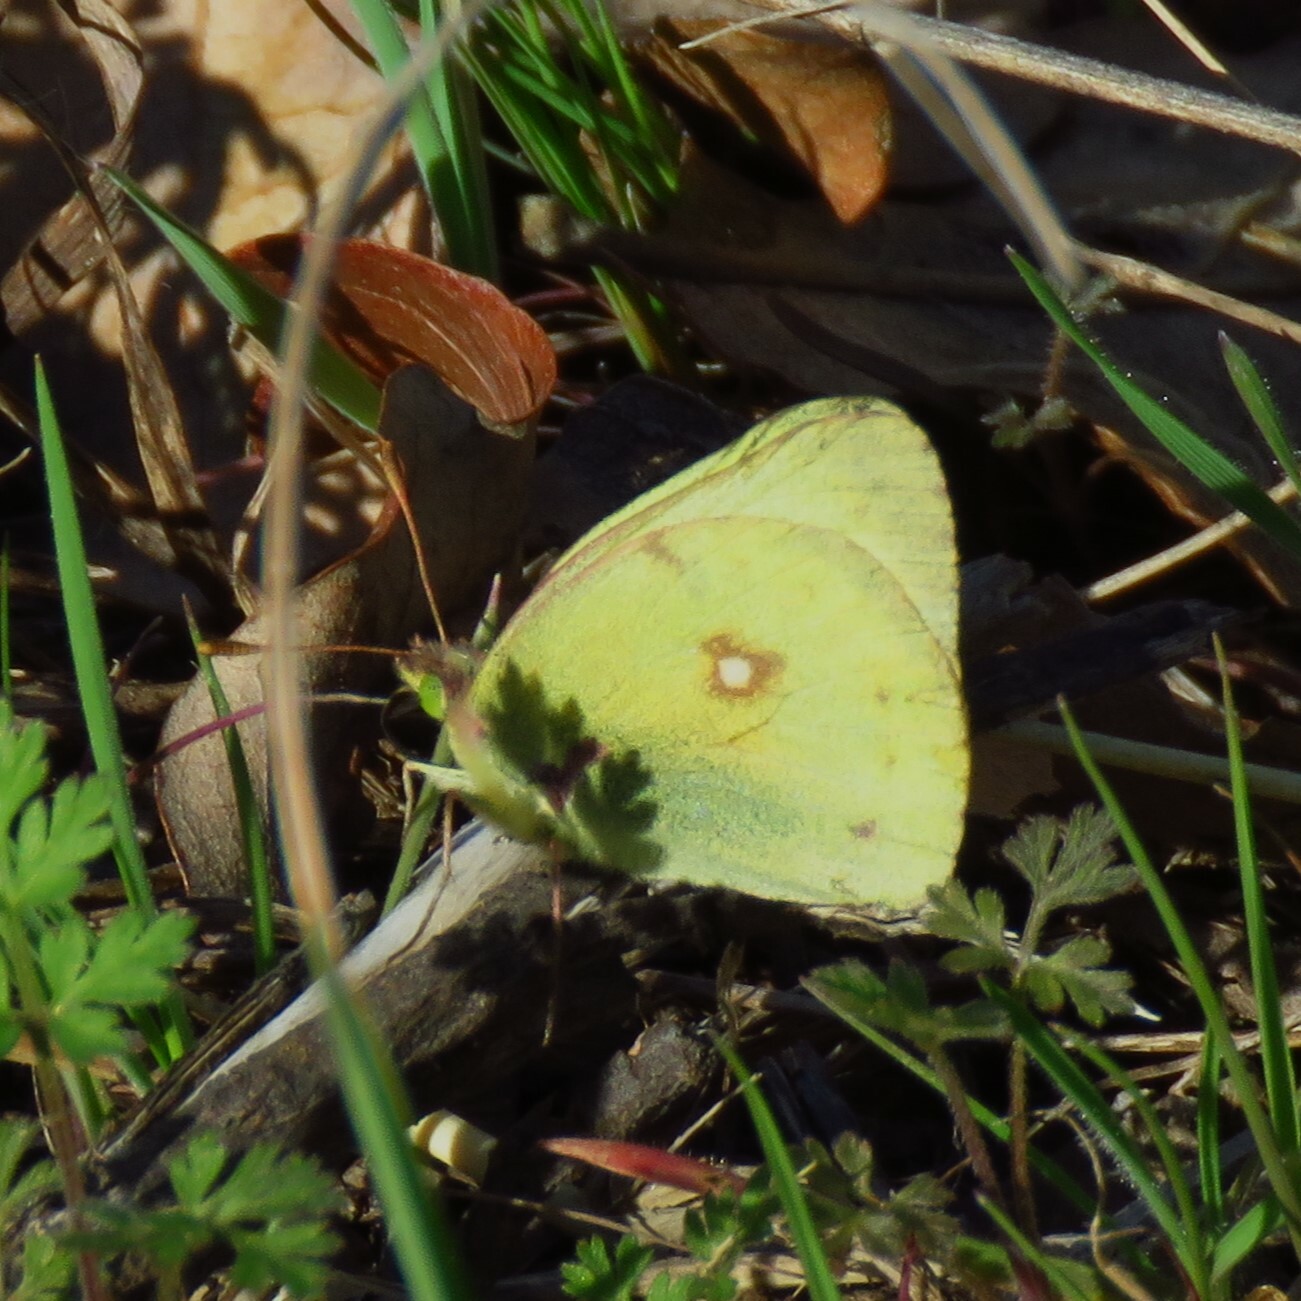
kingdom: Animalia
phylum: Arthropoda
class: Insecta
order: Lepidoptera
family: Pieridae
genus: Colias
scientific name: Colias eurytheme
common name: Alfalfa butterfly
